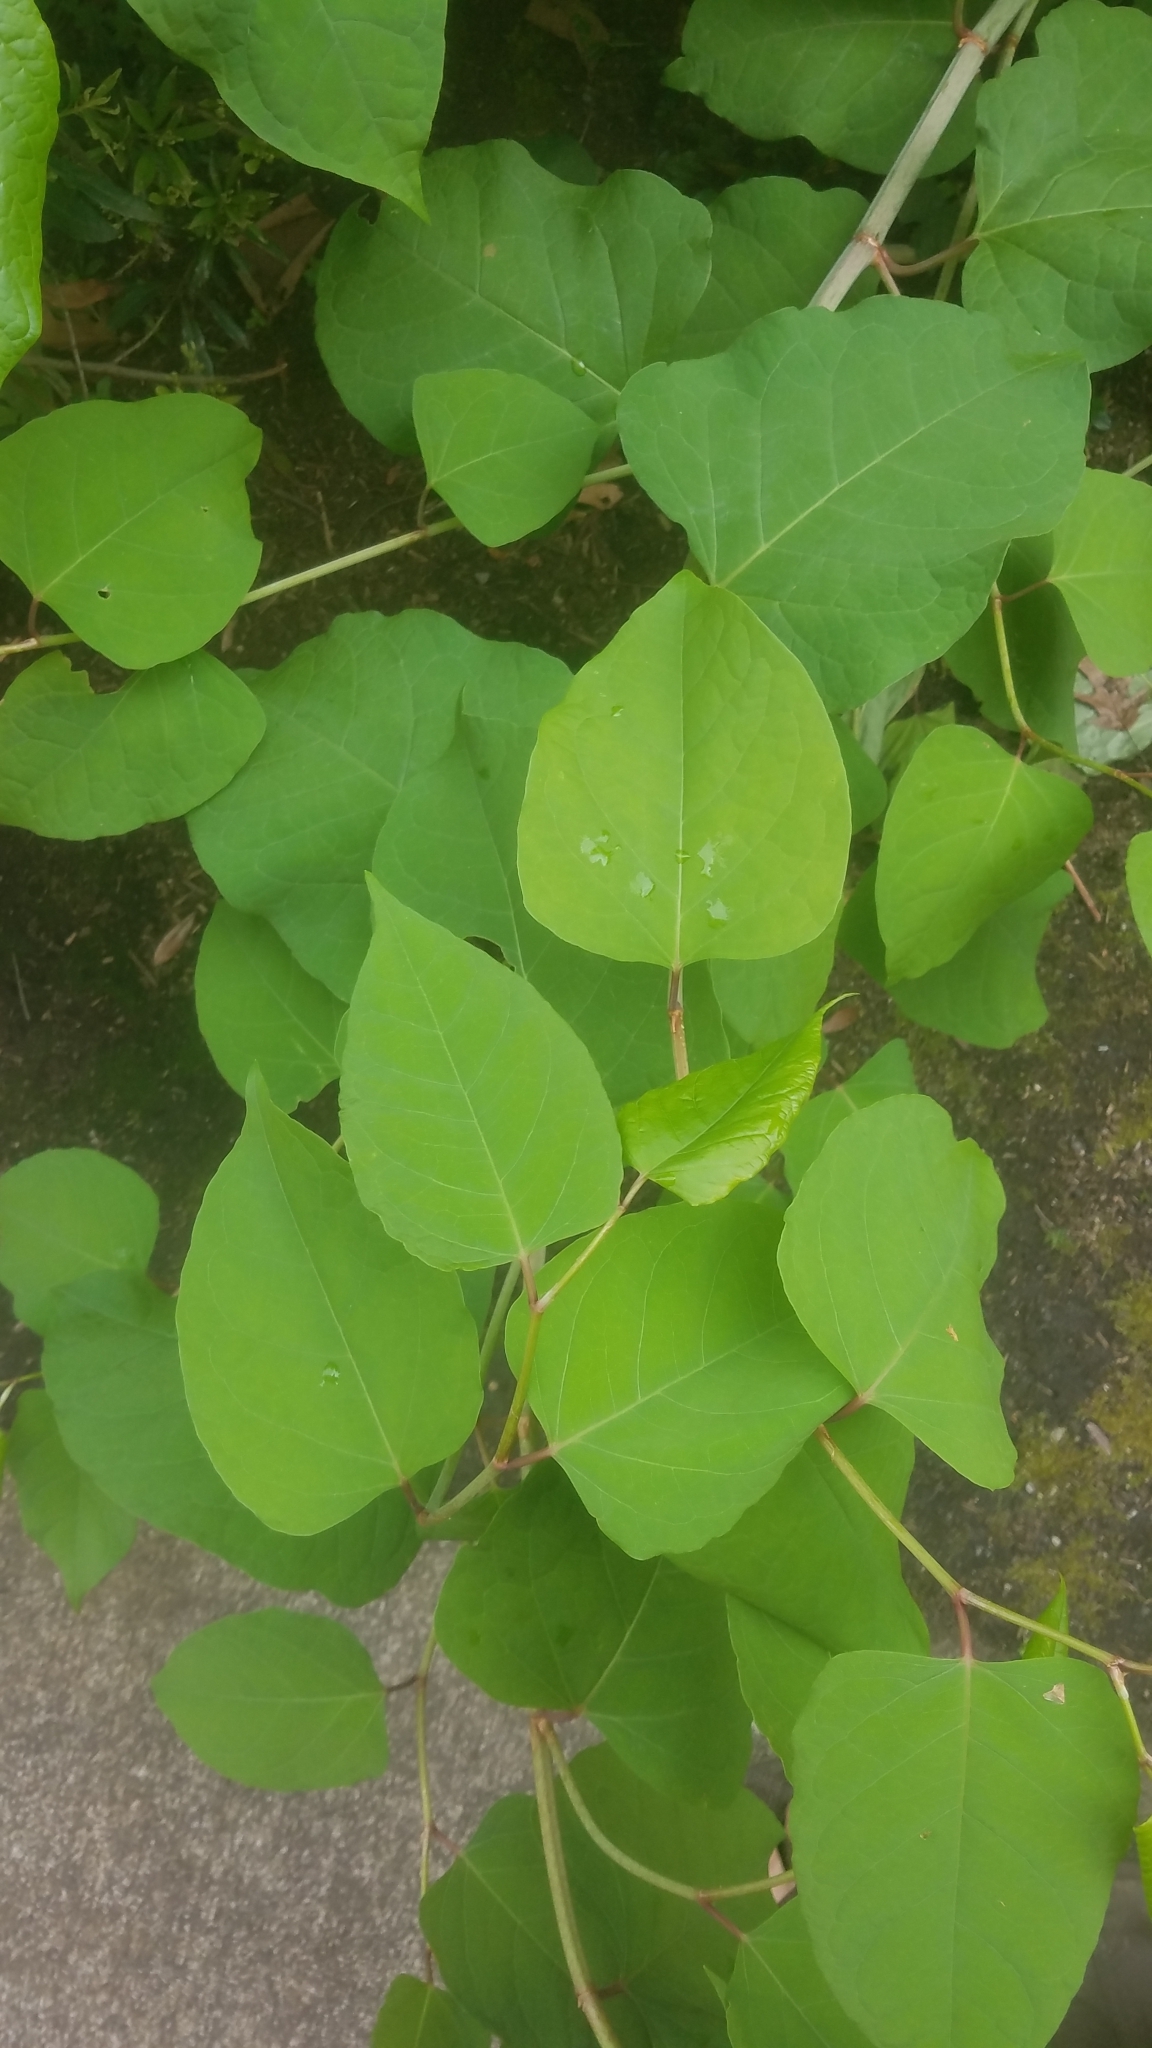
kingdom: Plantae
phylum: Tracheophyta
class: Magnoliopsida
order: Caryophyllales
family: Polygonaceae
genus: Reynoutria
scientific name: Reynoutria japonica
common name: Japanese knotweed
